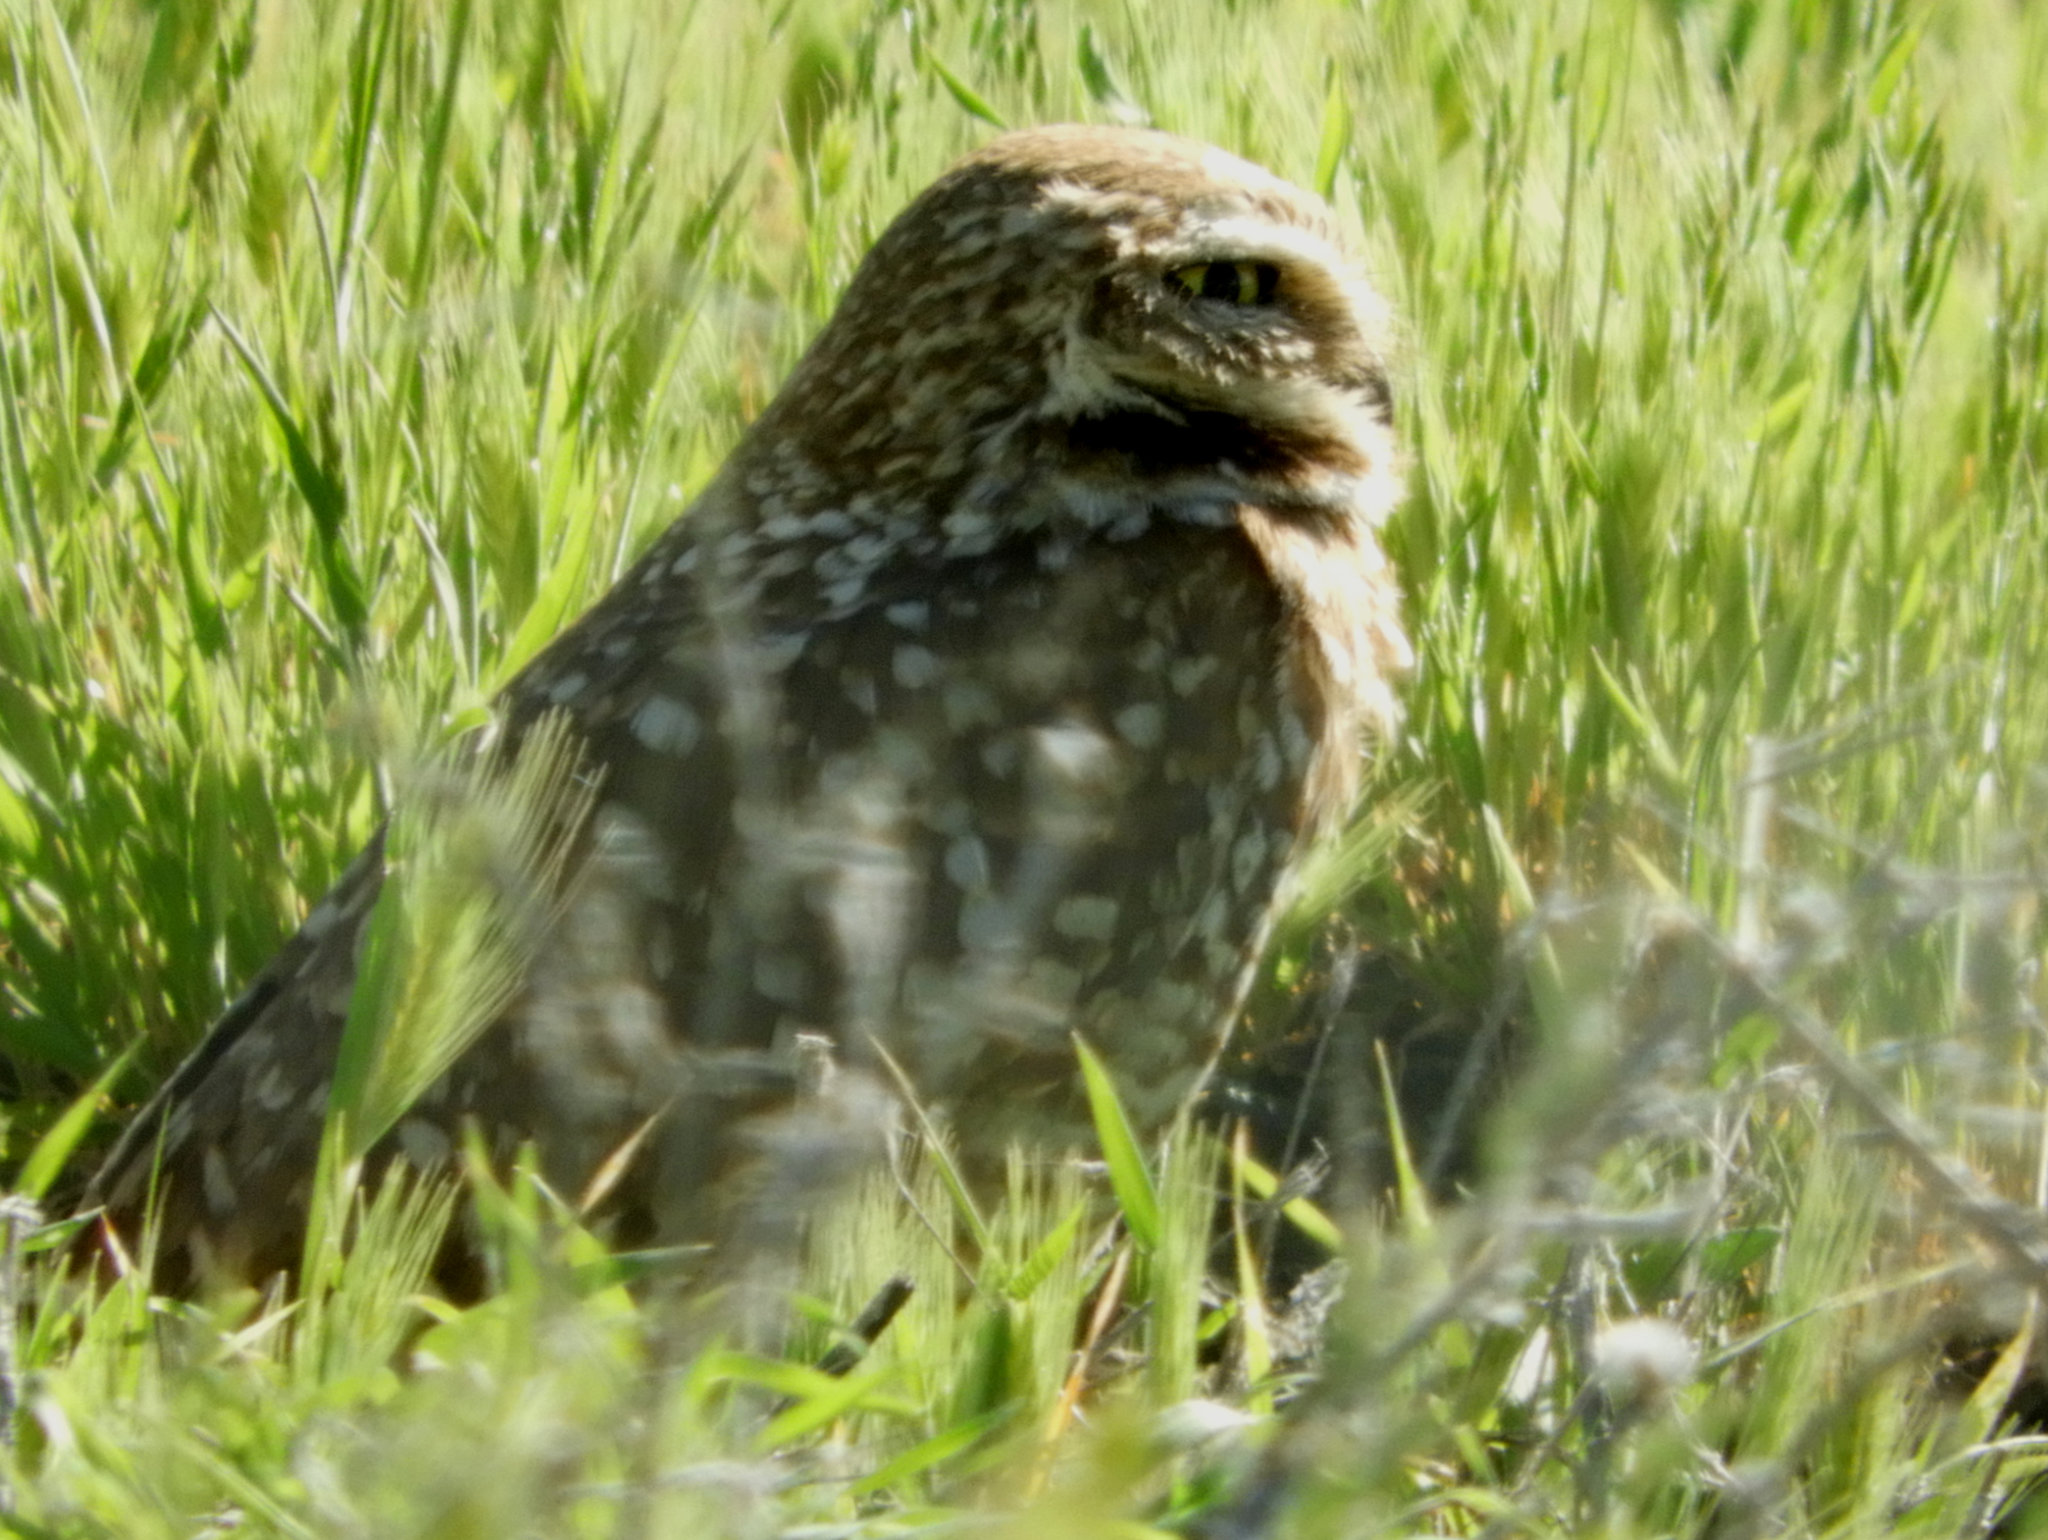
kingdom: Animalia
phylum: Chordata
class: Aves
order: Strigiformes
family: Strigidae
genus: Athene
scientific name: Athene cunicularia
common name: Burrowing owl
